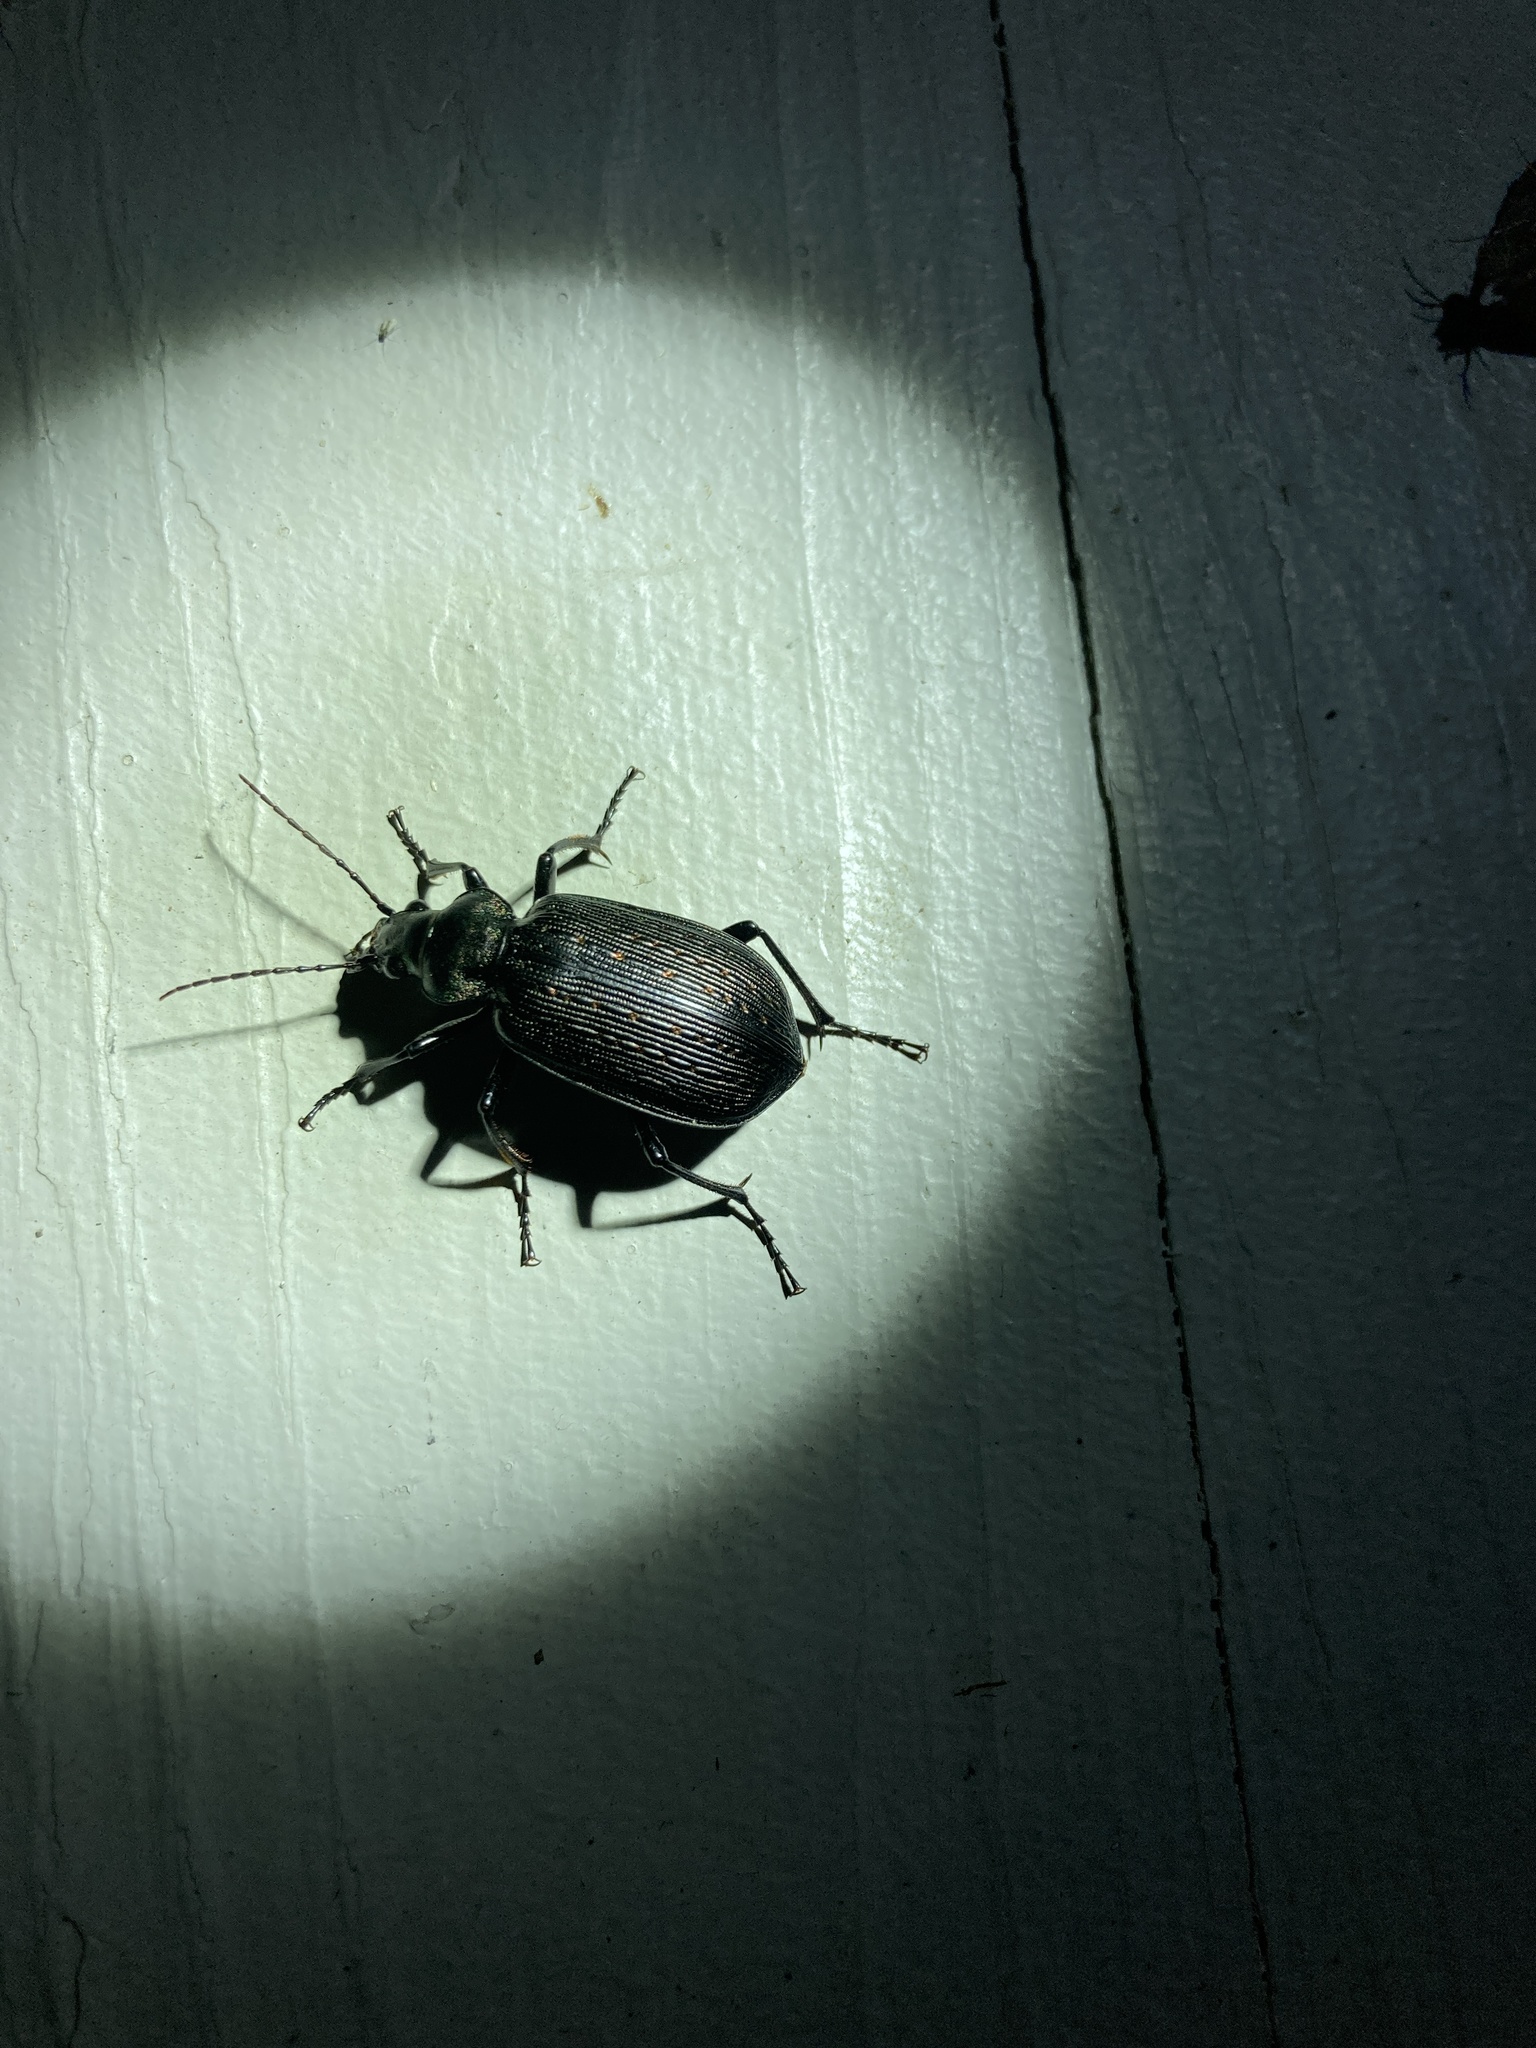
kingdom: Animalia
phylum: Arthropoda
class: Insecta
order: Coleoptera
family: Carabidae
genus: Calosoma
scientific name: Calosoma sayi
